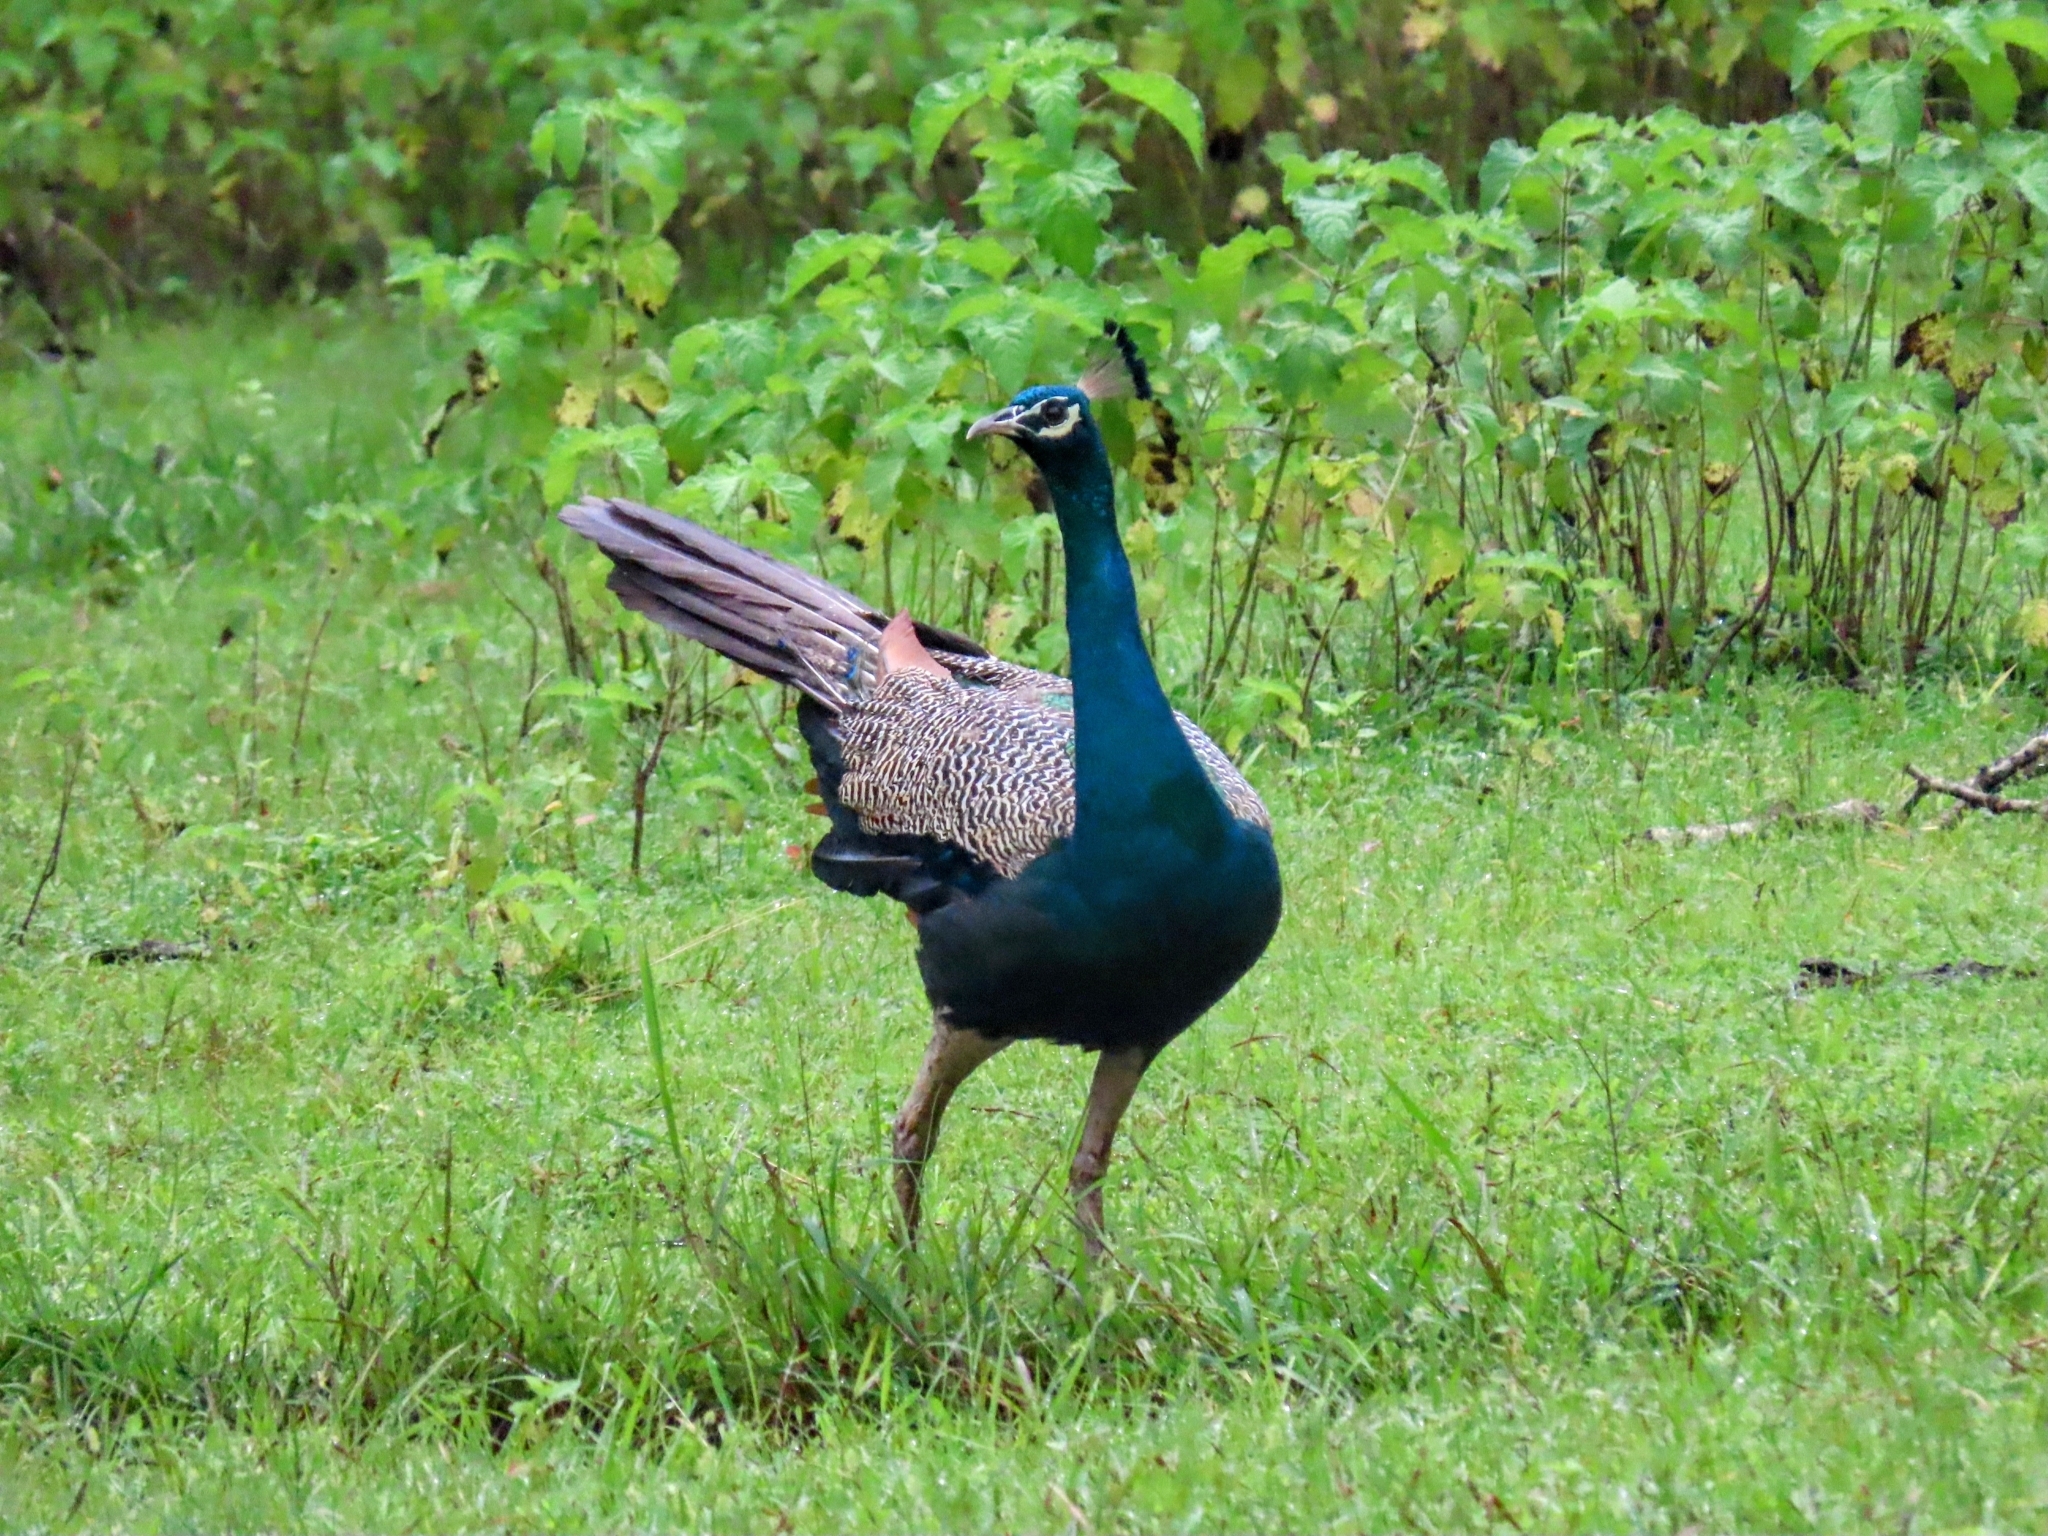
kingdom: Animalia
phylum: Chordata
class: Aves
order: Galliformes
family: Phasianidae
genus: Pavo
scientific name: Pavo cristatus
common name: Indian peafowl
